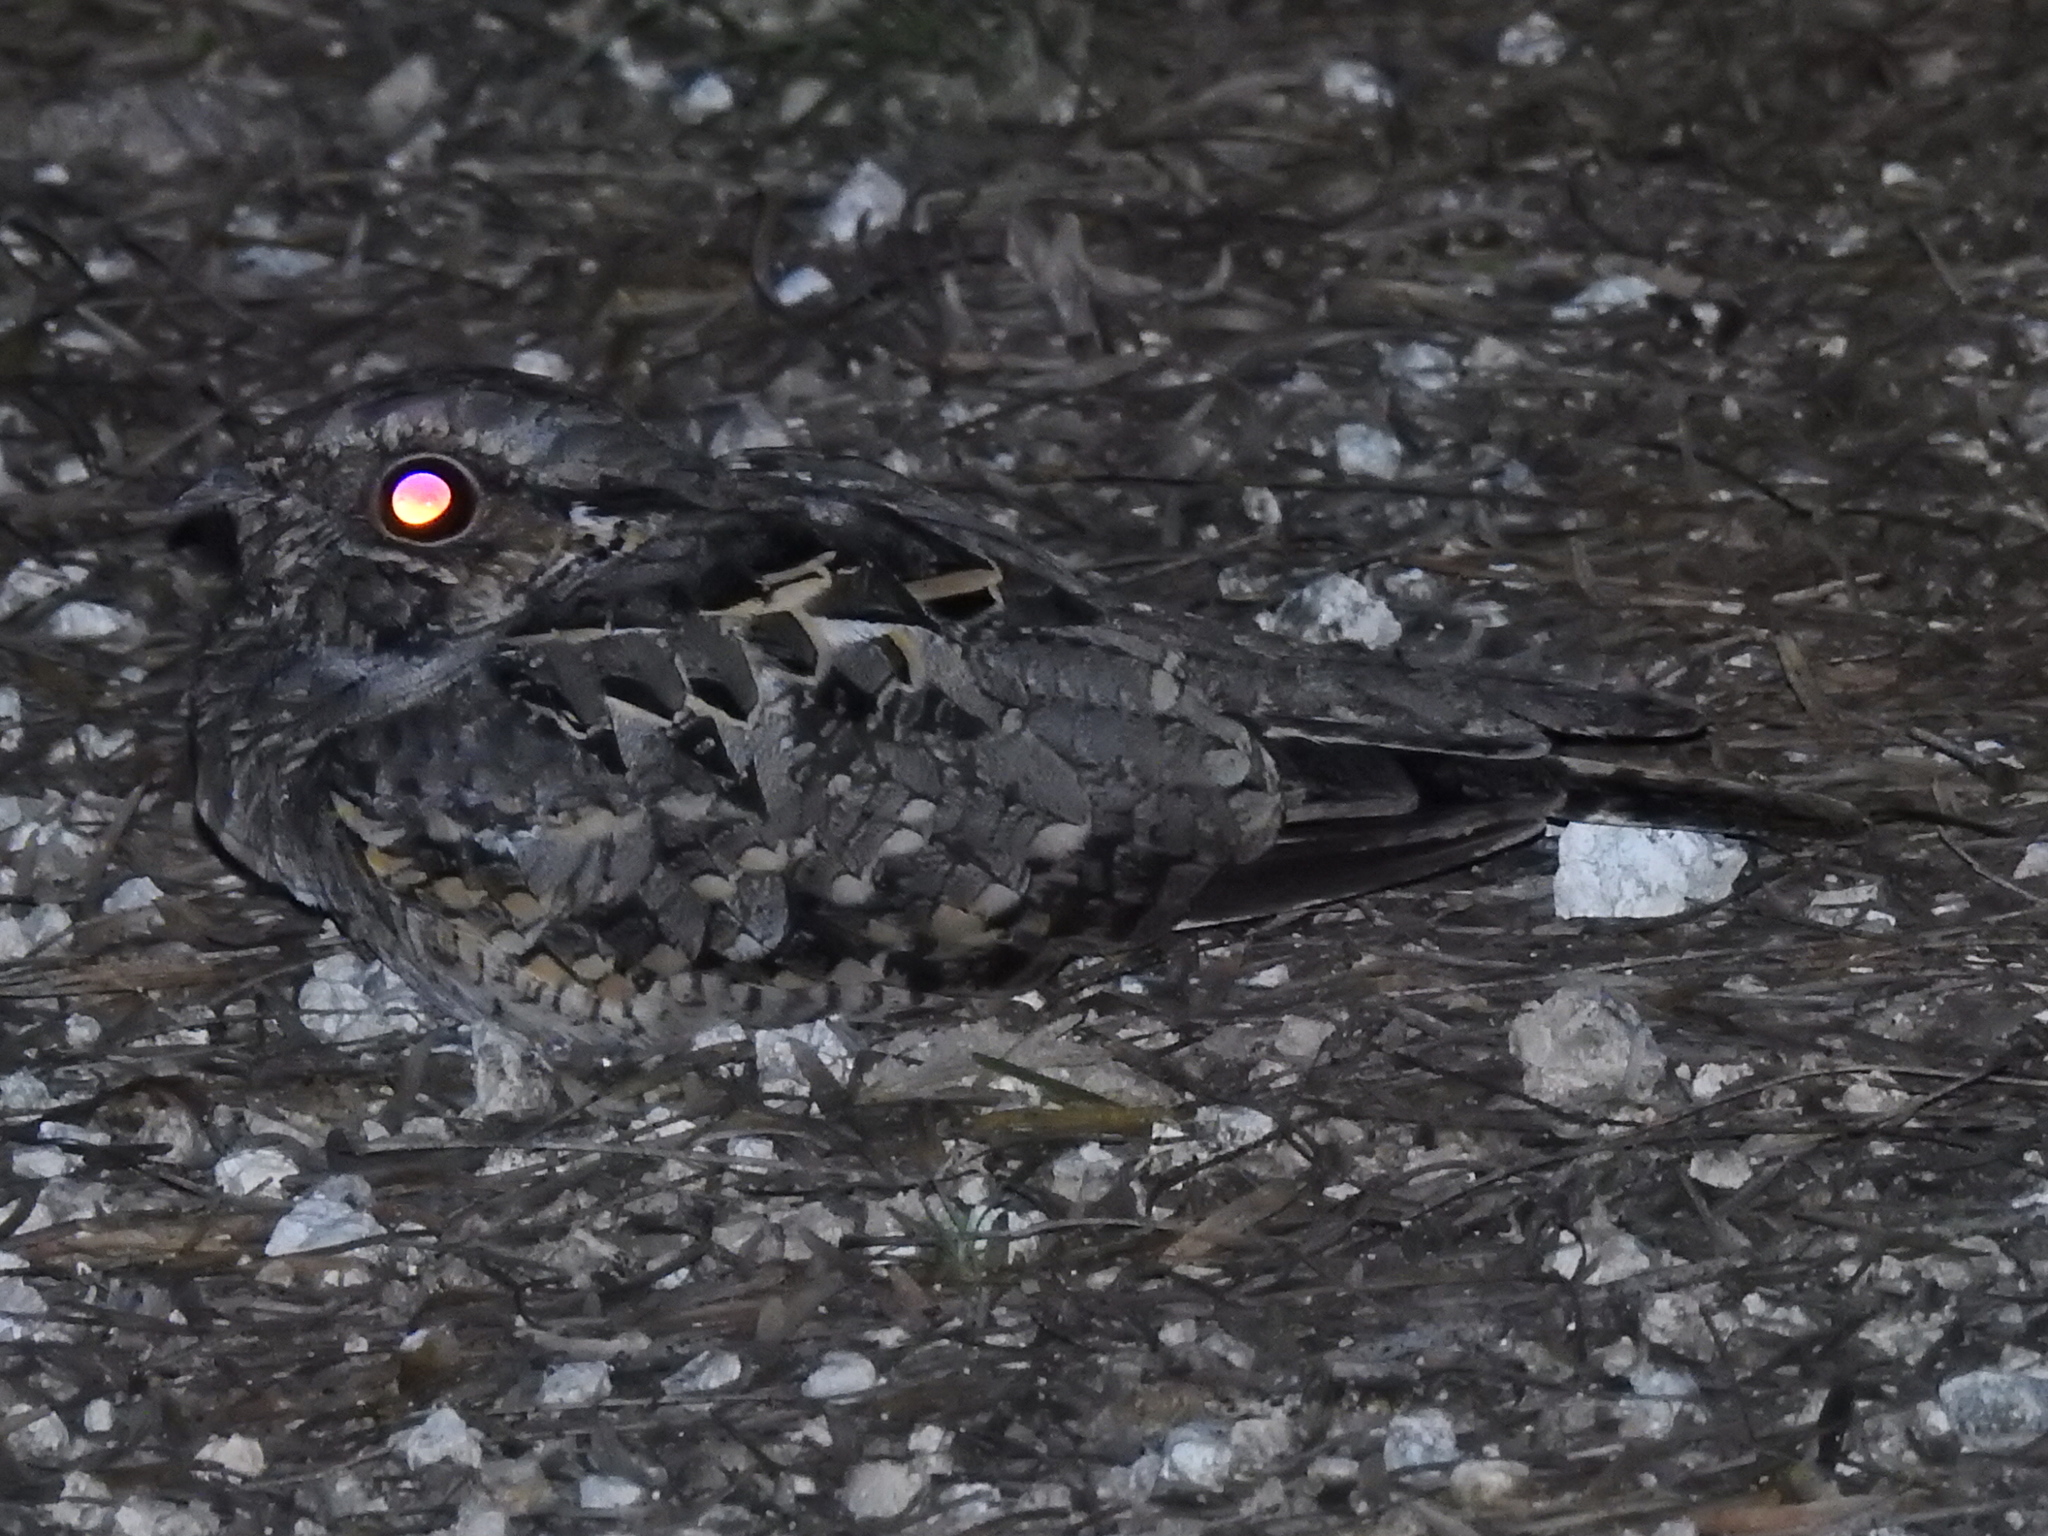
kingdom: Animalia
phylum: Chordata
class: Aves
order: Caprimulgiformes
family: Caprimulgidae
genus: Nyctidromus
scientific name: Nyctidromus albicollis
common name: Pauraque
